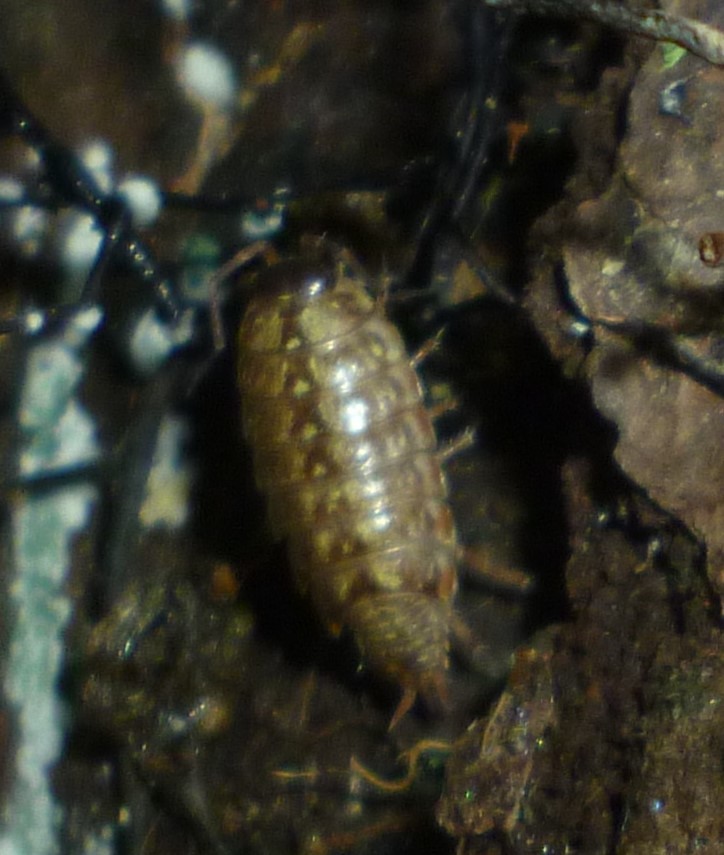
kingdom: Animalia
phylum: Arthropoda
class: Malacostraca
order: Isopoda
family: Philosciidae
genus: Philoscia
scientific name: Philoscia muscorum
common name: Common striped woodlouse
